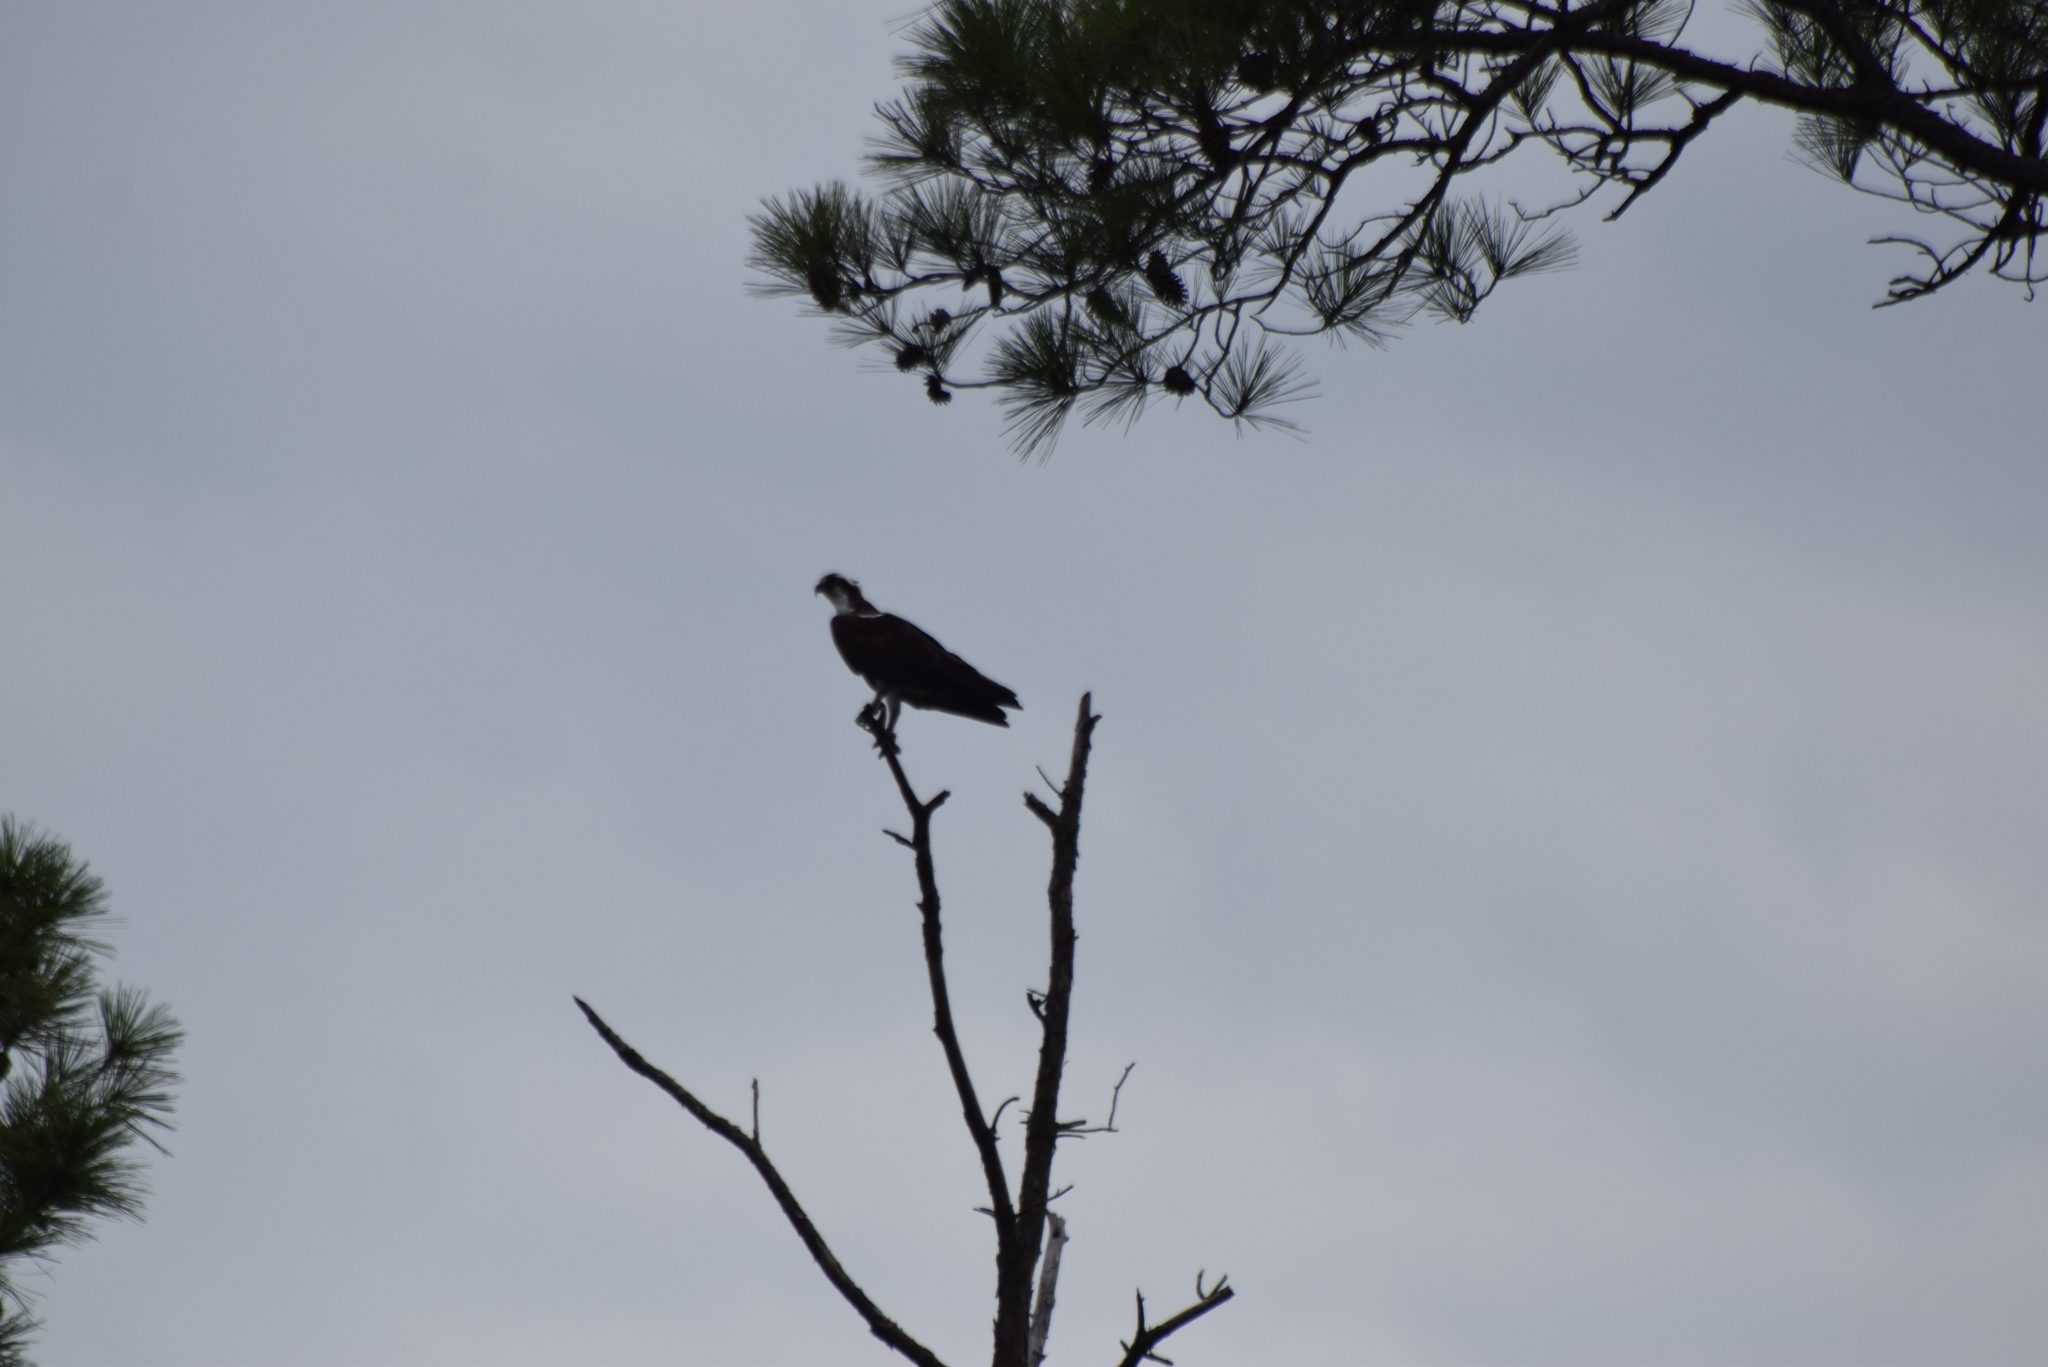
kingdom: Animalia
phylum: Chordata
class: Aves
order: Accipitriformes
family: Pandionidae
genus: Pandion
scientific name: Pandion haliaetus
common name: Osprey
